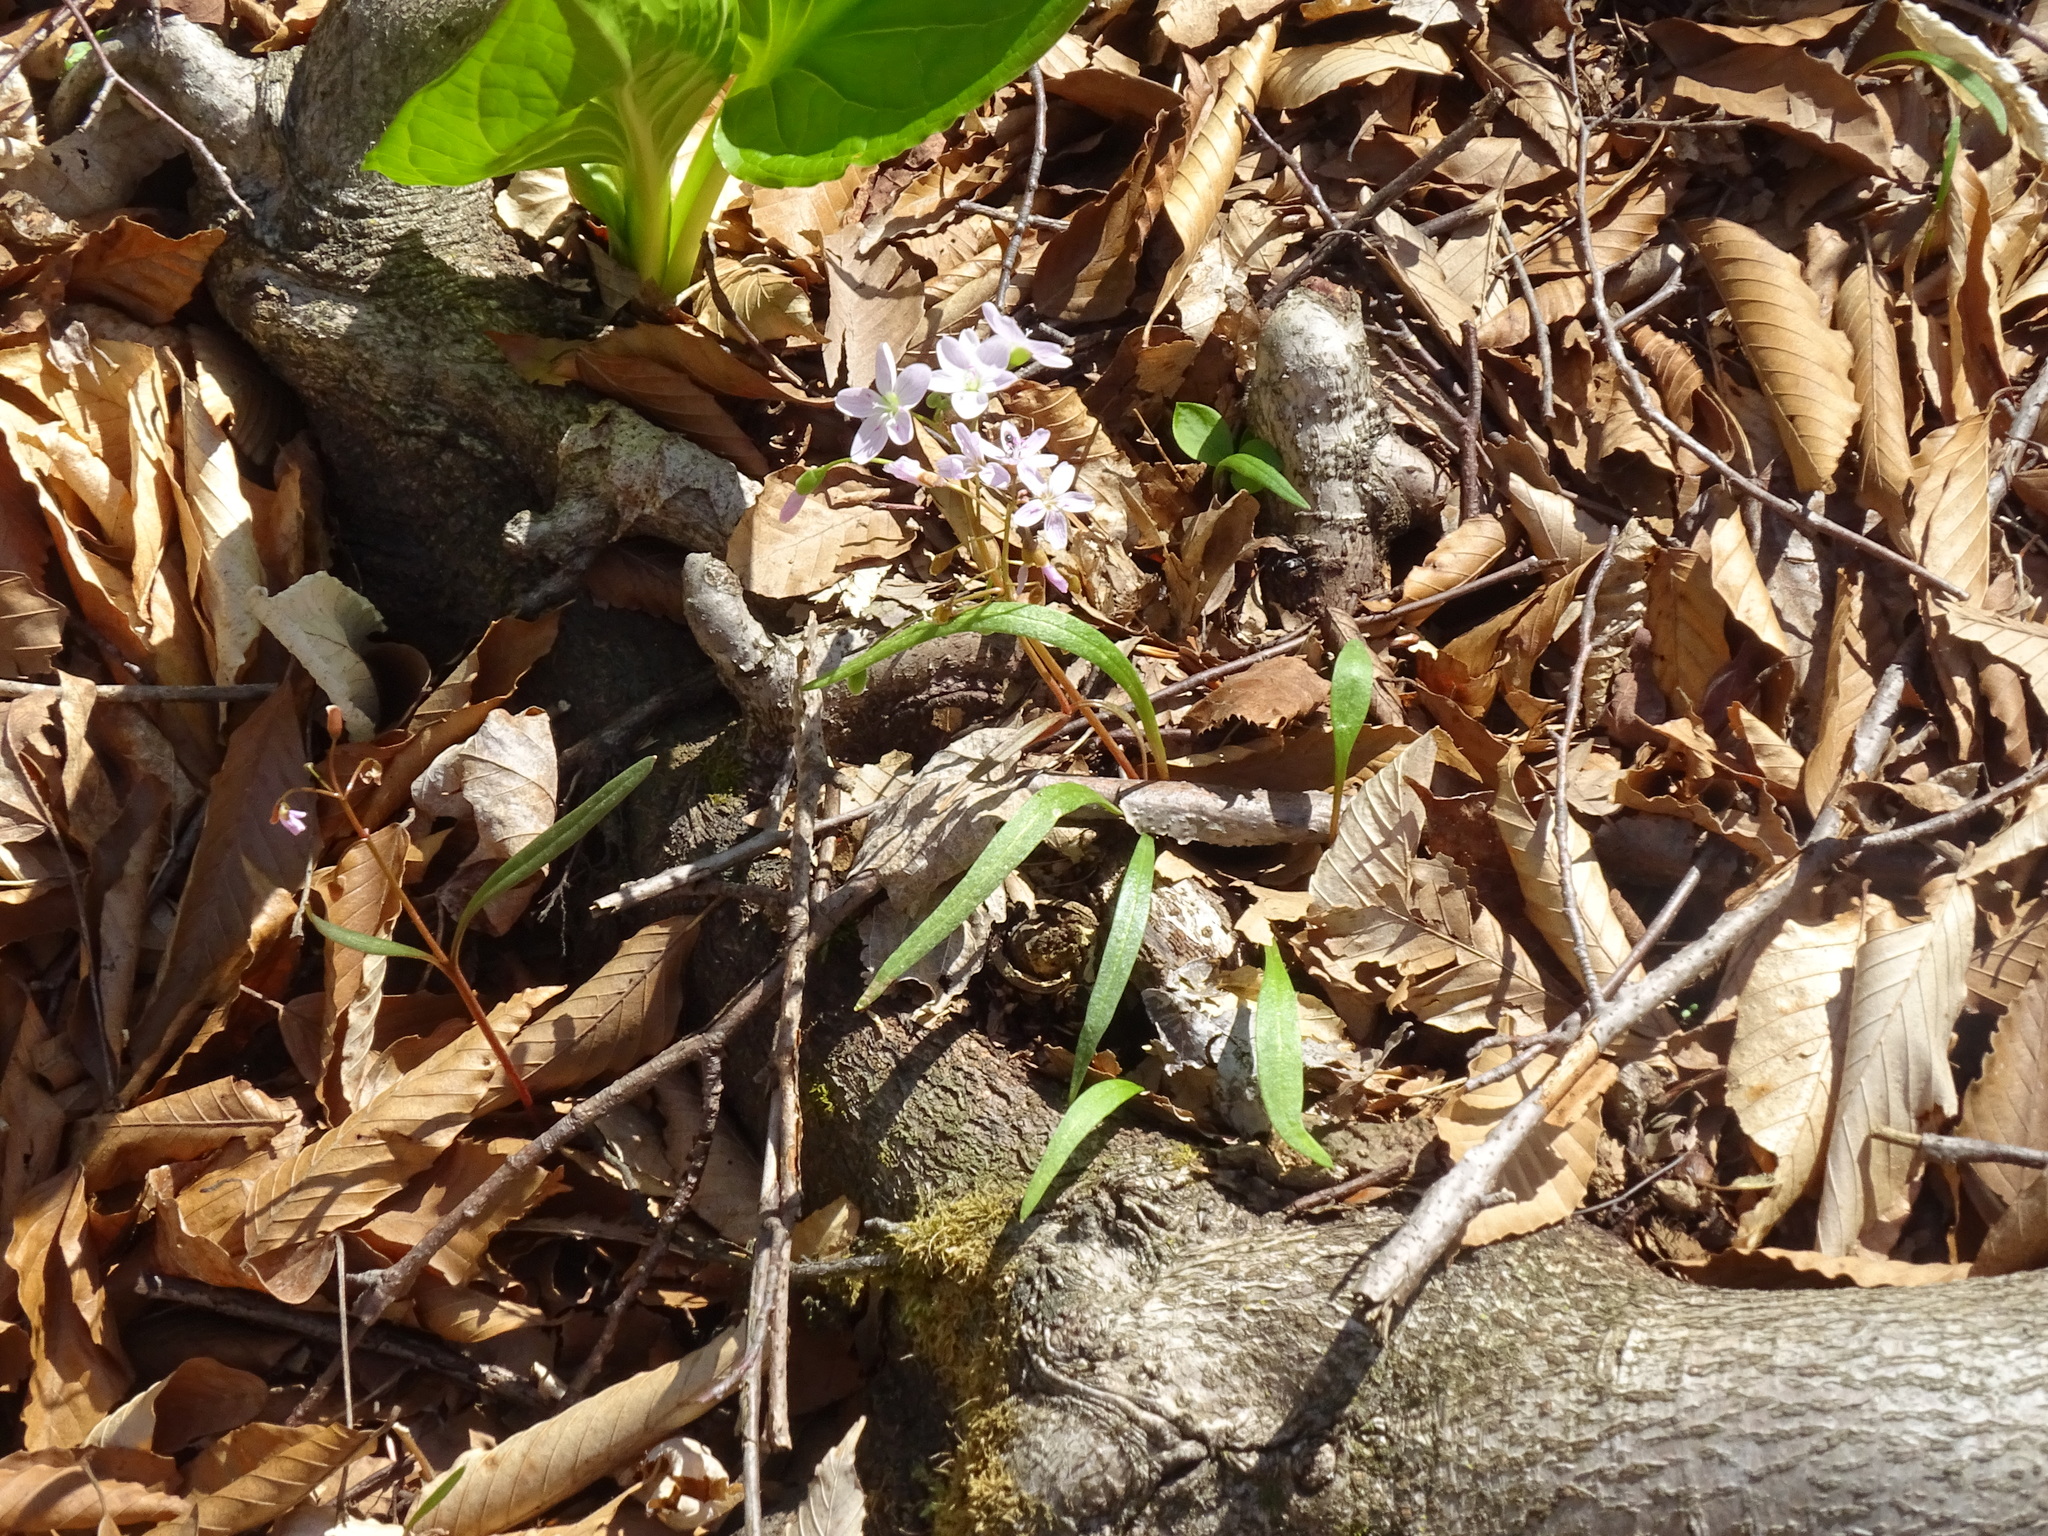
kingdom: Plantae
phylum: Tracheophyta
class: Magnoliopsida
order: Caryophyllales
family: Montiaceae
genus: Claytonia
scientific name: Claytonia virginica
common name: Virginia springbeauty
